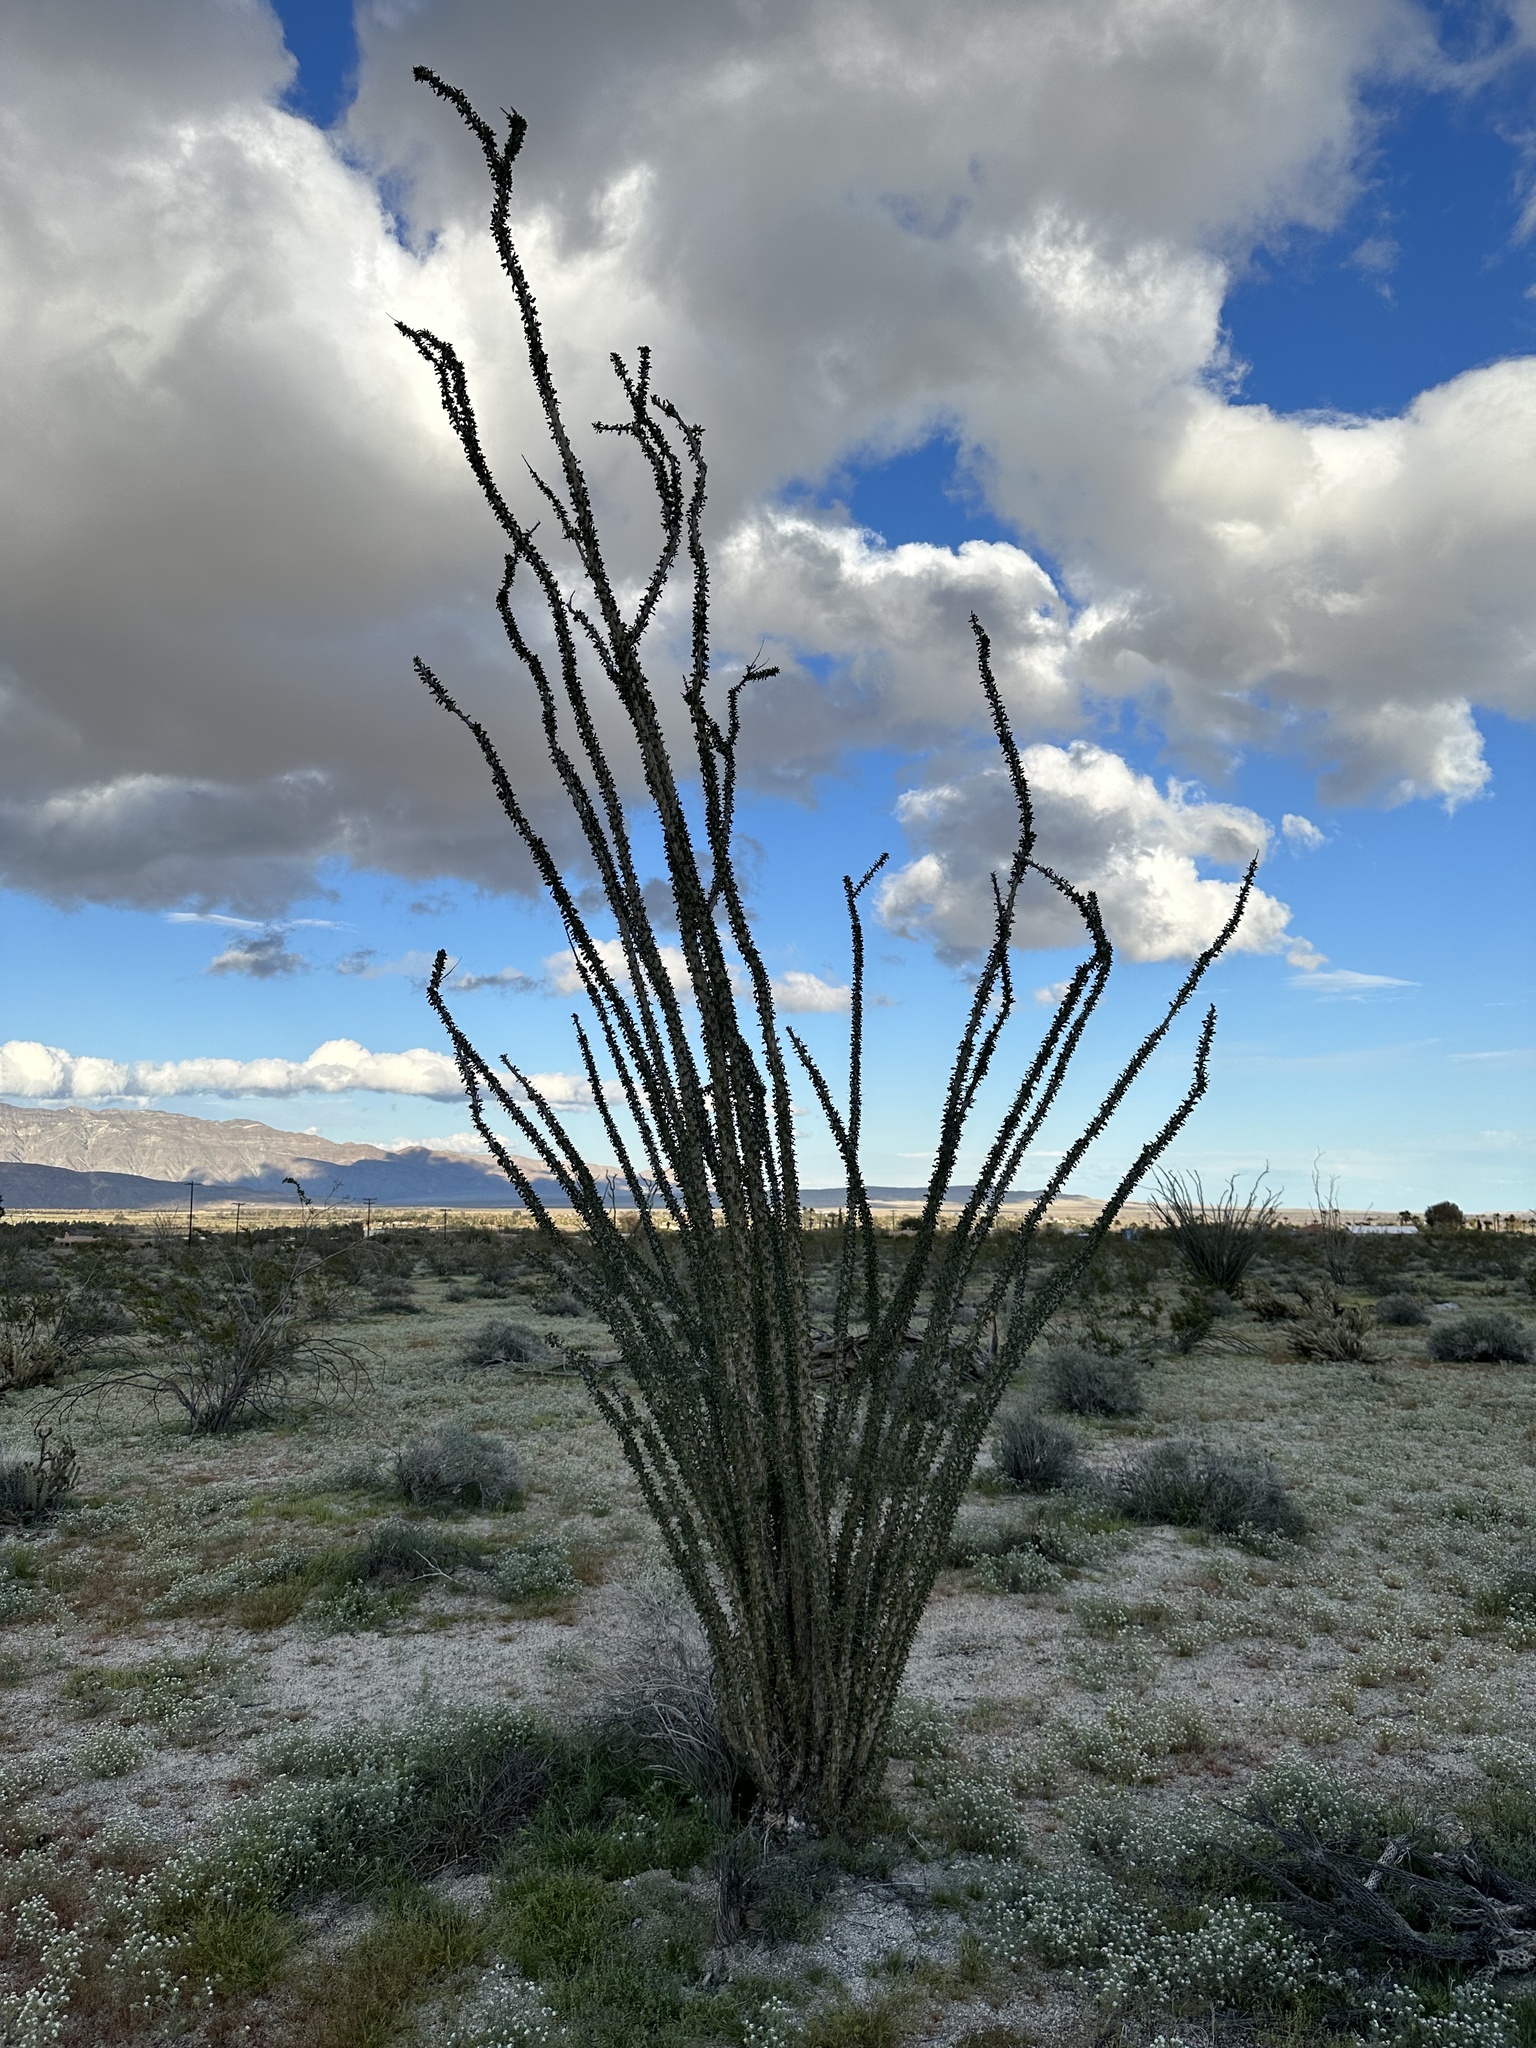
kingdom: Plantae
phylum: Tracheophyta
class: Magnoliopsida
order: Ericales
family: Fouquieriaceae
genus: Fouquieria
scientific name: Fouquieria splendens
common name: Vine-cactus
